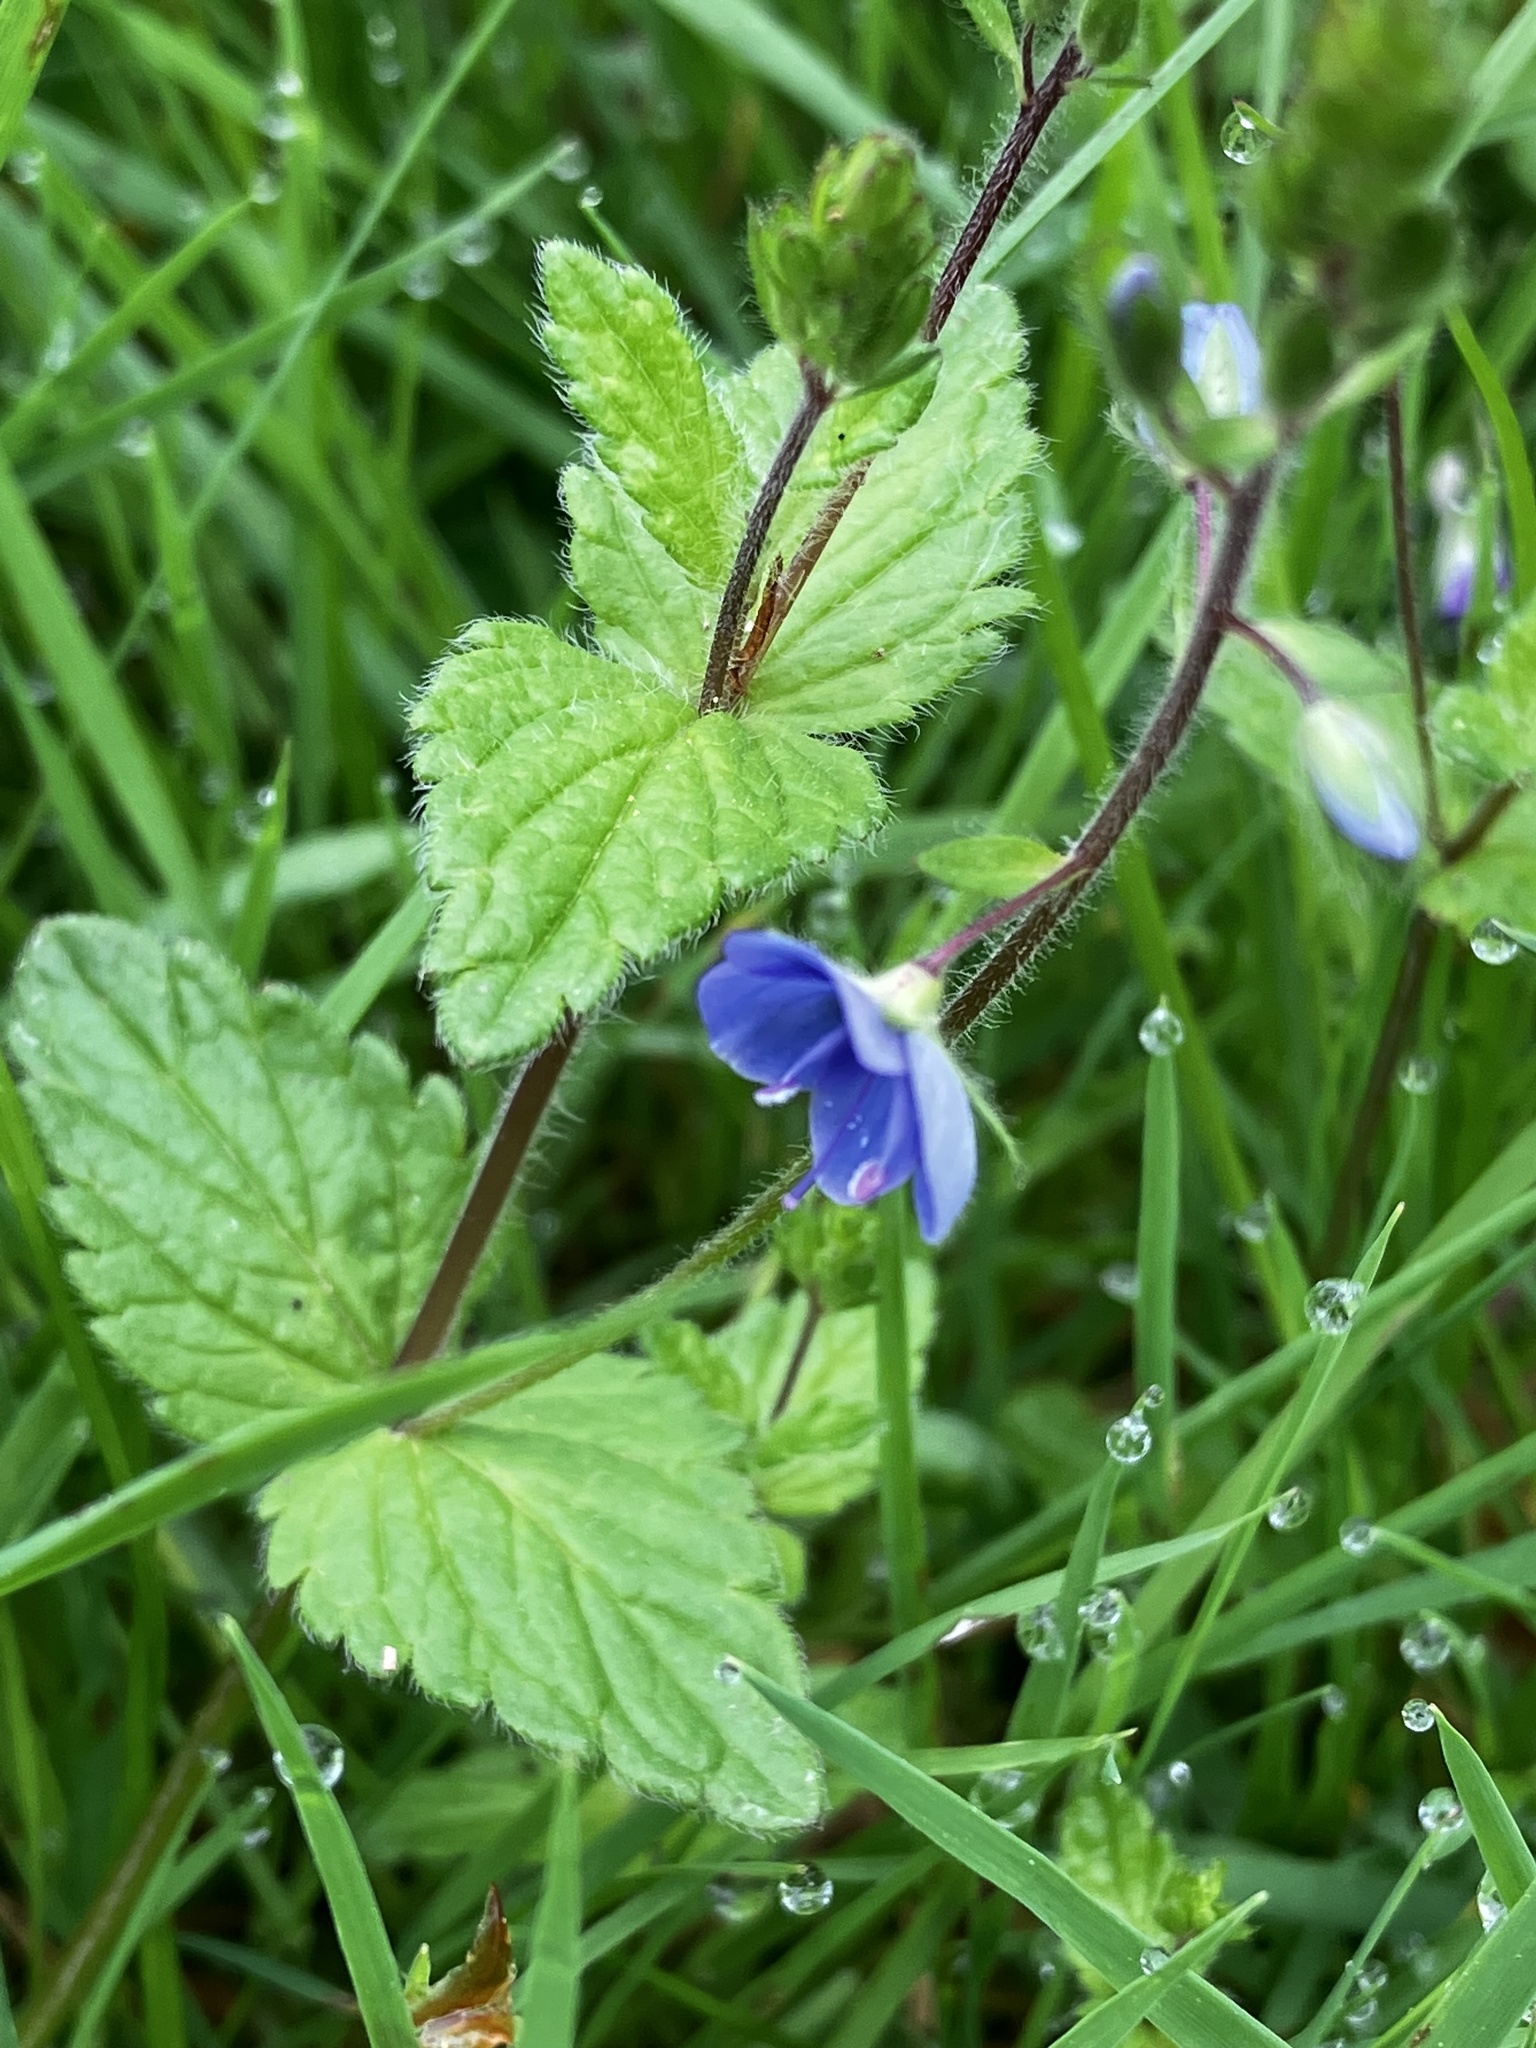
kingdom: Plantae
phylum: Tracheophyta
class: Magnoliopsida
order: Lamiales
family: Plantaginaceae
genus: Veronica
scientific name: Veronica chamaedrys
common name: Germander speedwell
